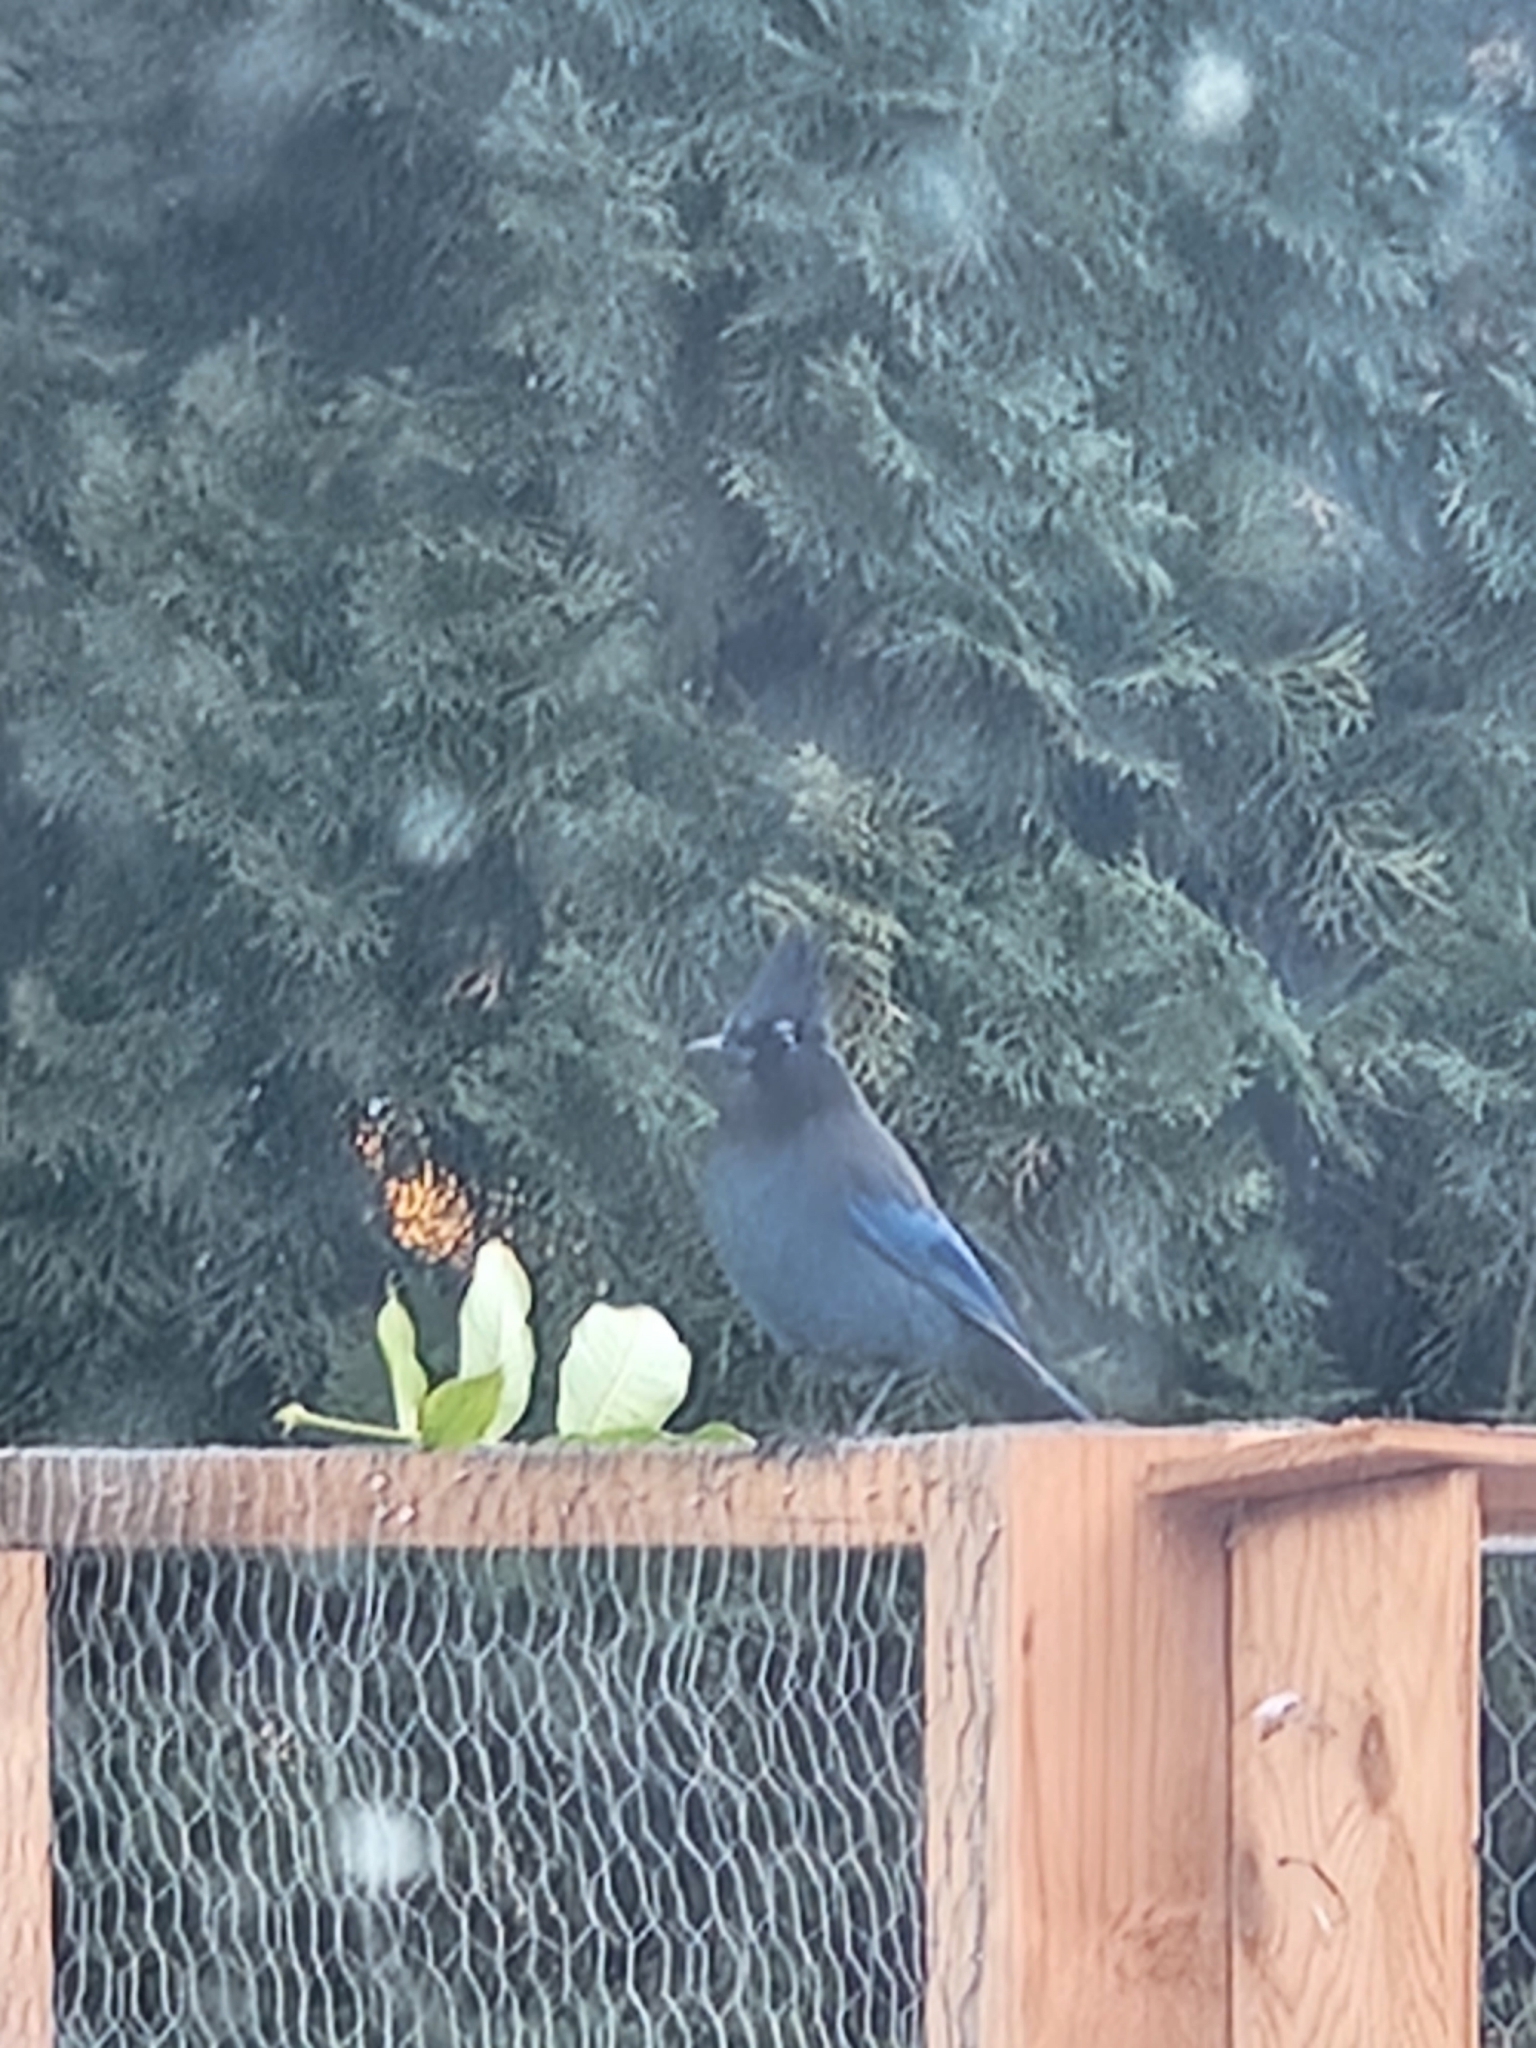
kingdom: Animalia
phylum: Chordata
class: Aves
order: Passeriformes
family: Corvidae
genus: Cyanocitta
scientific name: Cyanocitta stelleri
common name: Steller's jay
